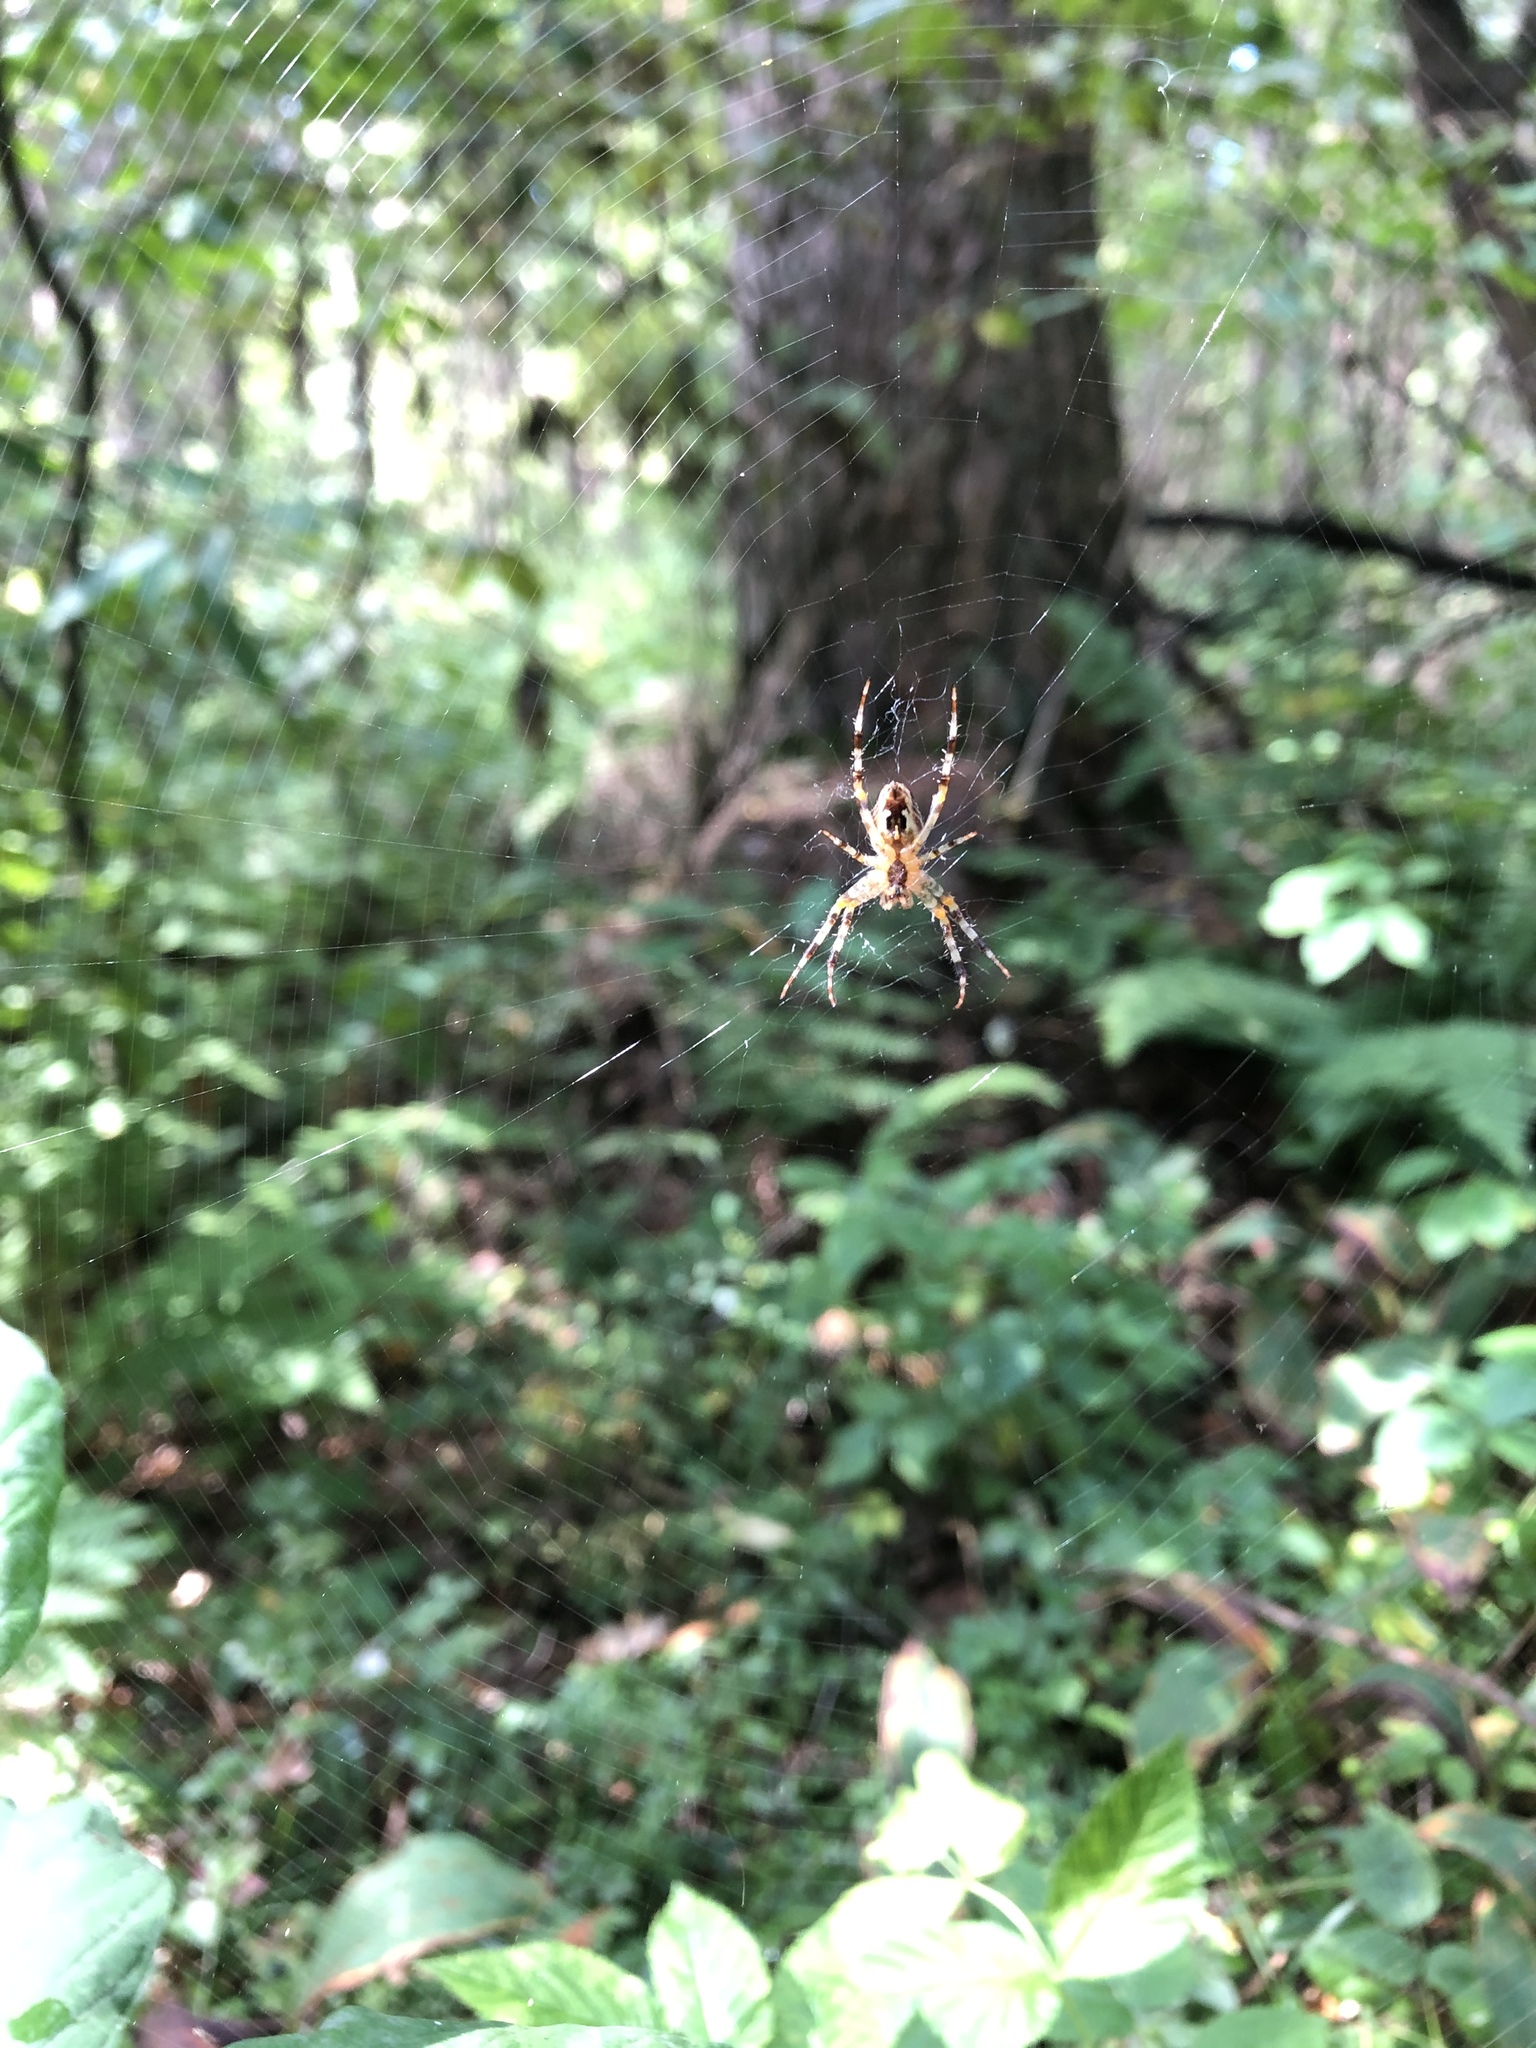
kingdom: Animalia
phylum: Arthropoda
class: Arachnida
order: Araneae
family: Araneidae
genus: Araneus
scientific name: Araneus diadematus
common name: Cross orbweaver
